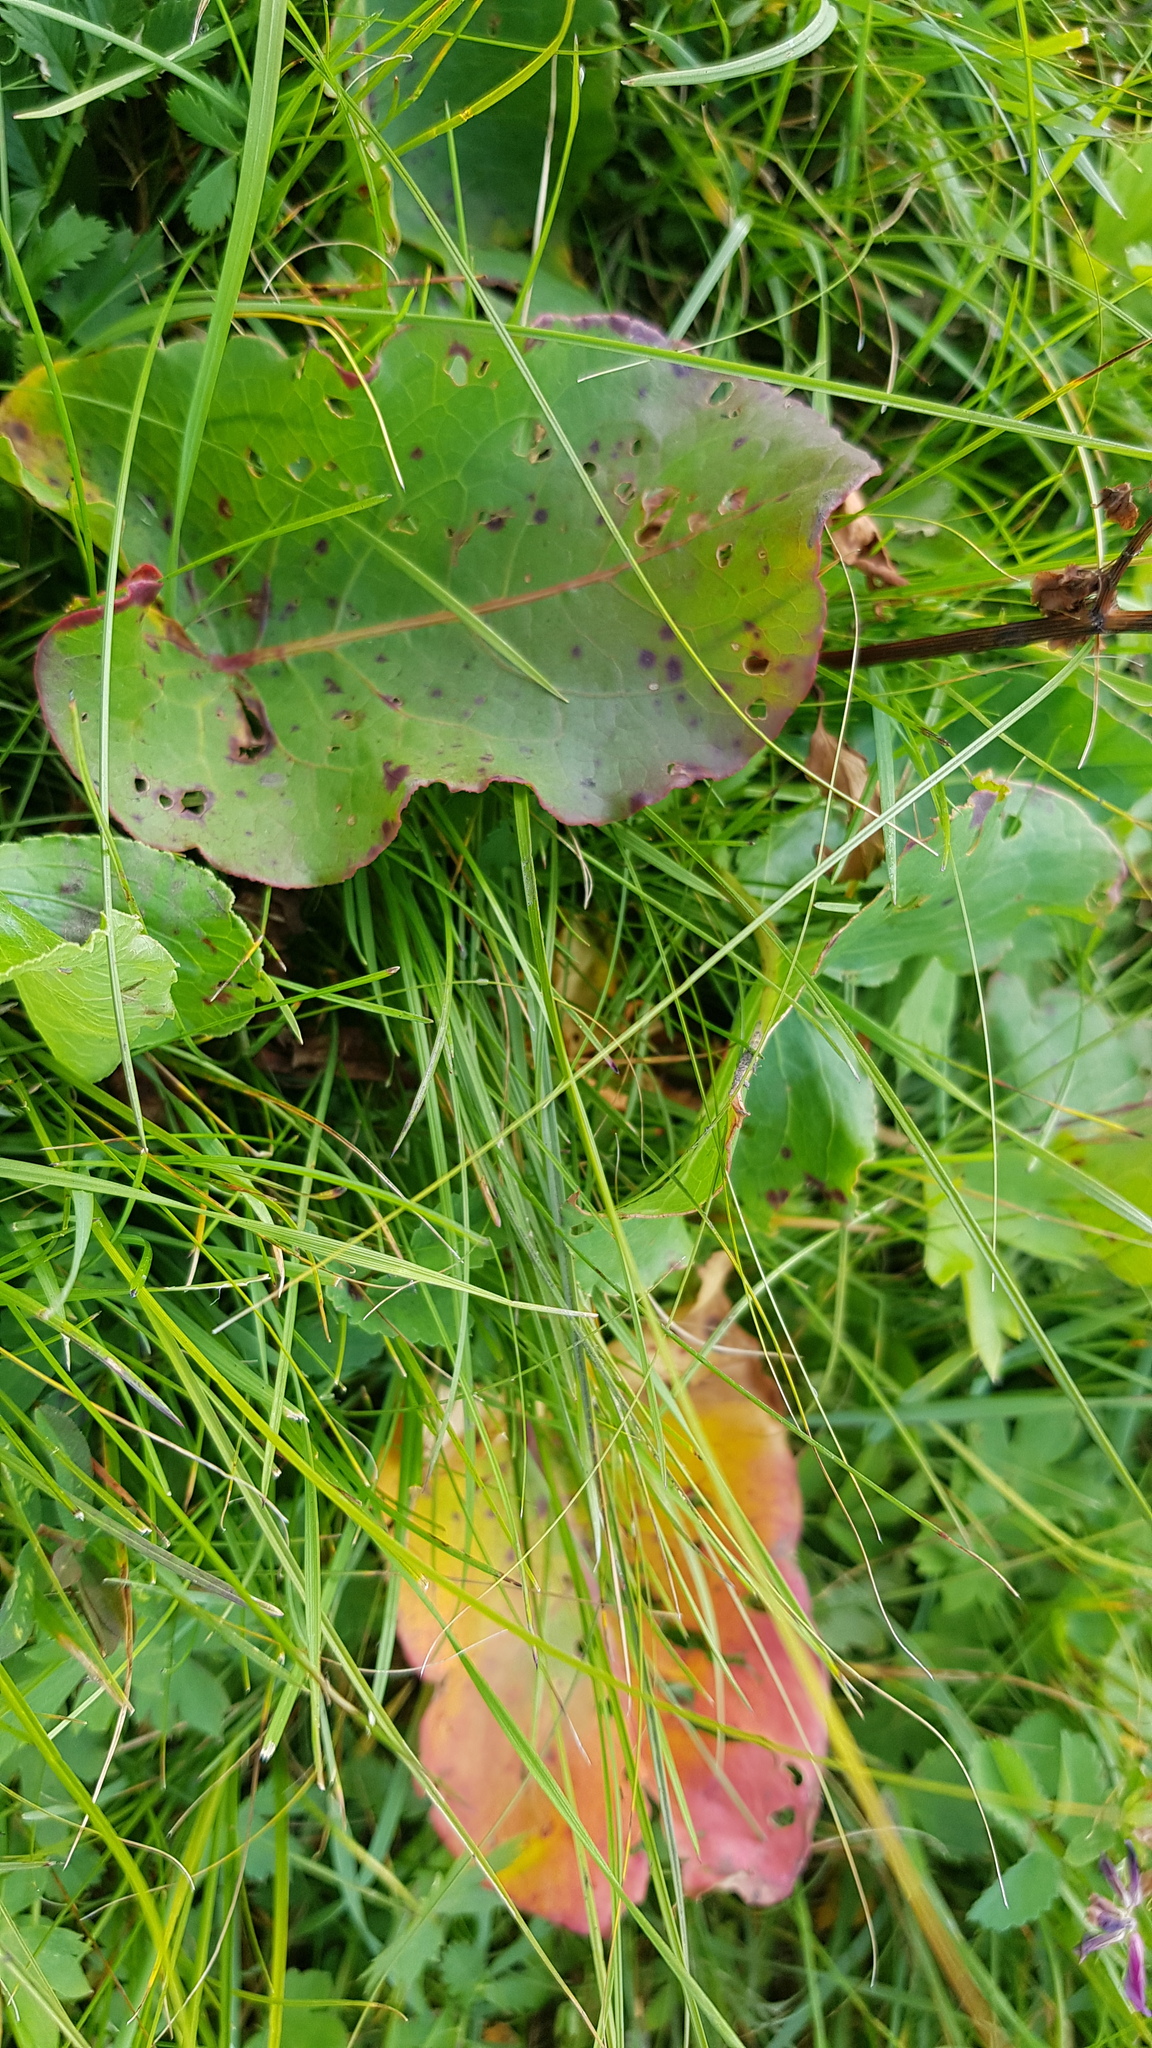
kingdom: Plantae
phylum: Tracheophyta
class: Magnoliopsida
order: Caryophyllales
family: Polygonaceae
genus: Rumex
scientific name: Rumex aquaticus
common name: Scottish dock
